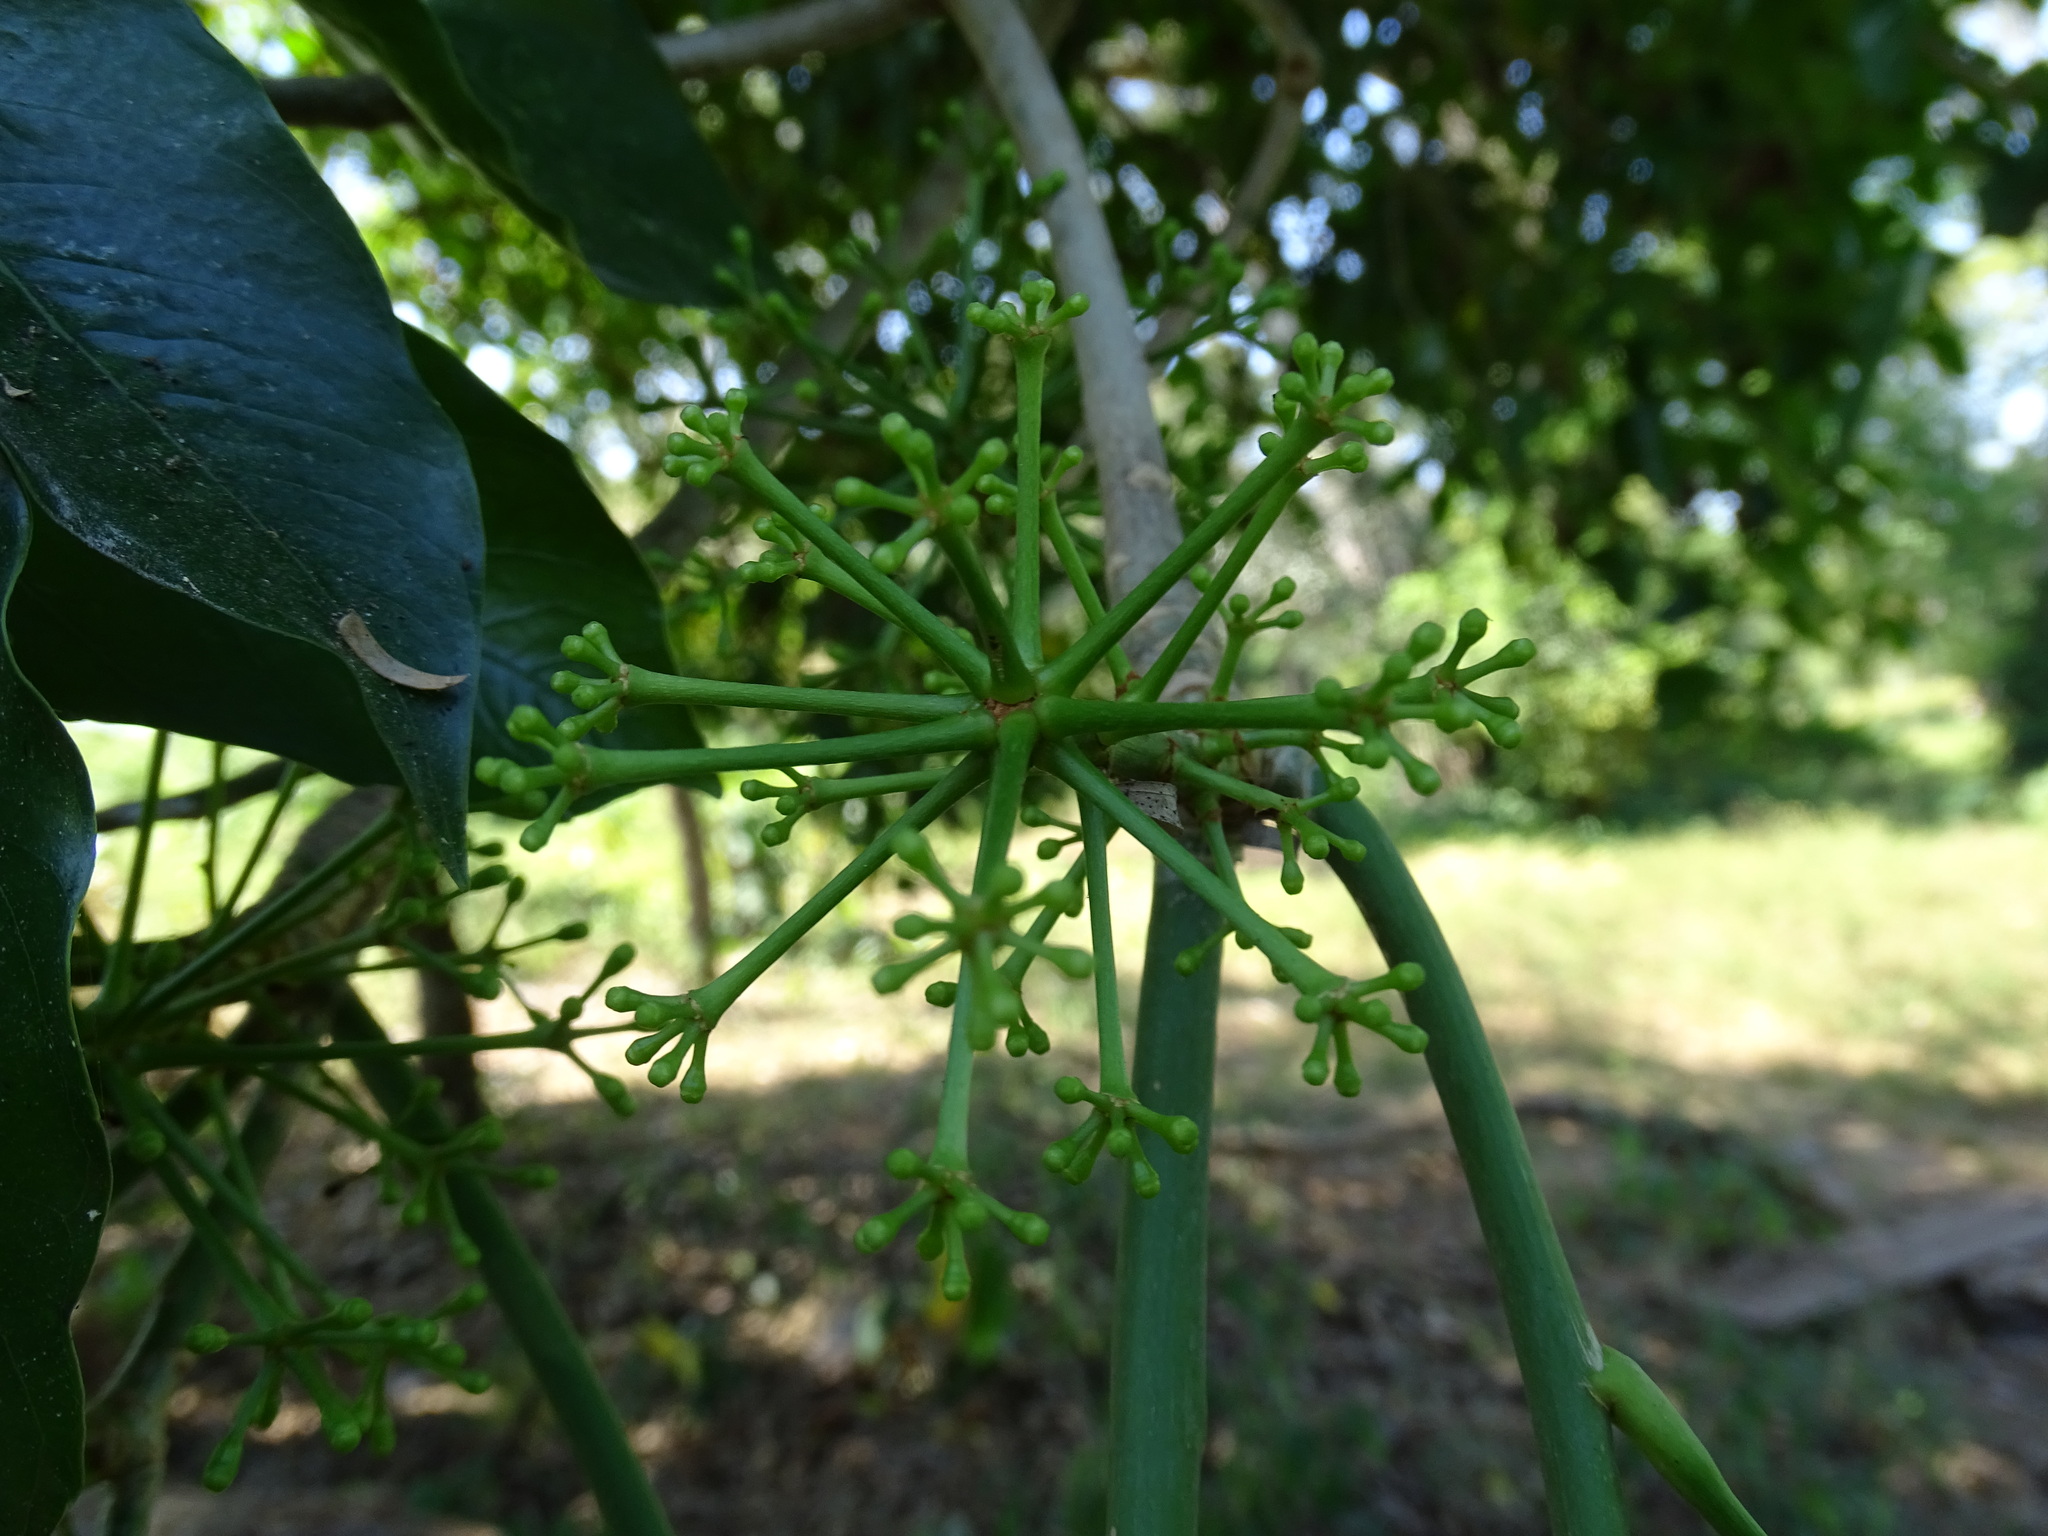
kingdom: Plantae
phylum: Tracheophyta
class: Magnoliopsida
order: Apiales
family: Araliaceae
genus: Dendropanax
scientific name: Dendropanax arboreus
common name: Potato-wood
